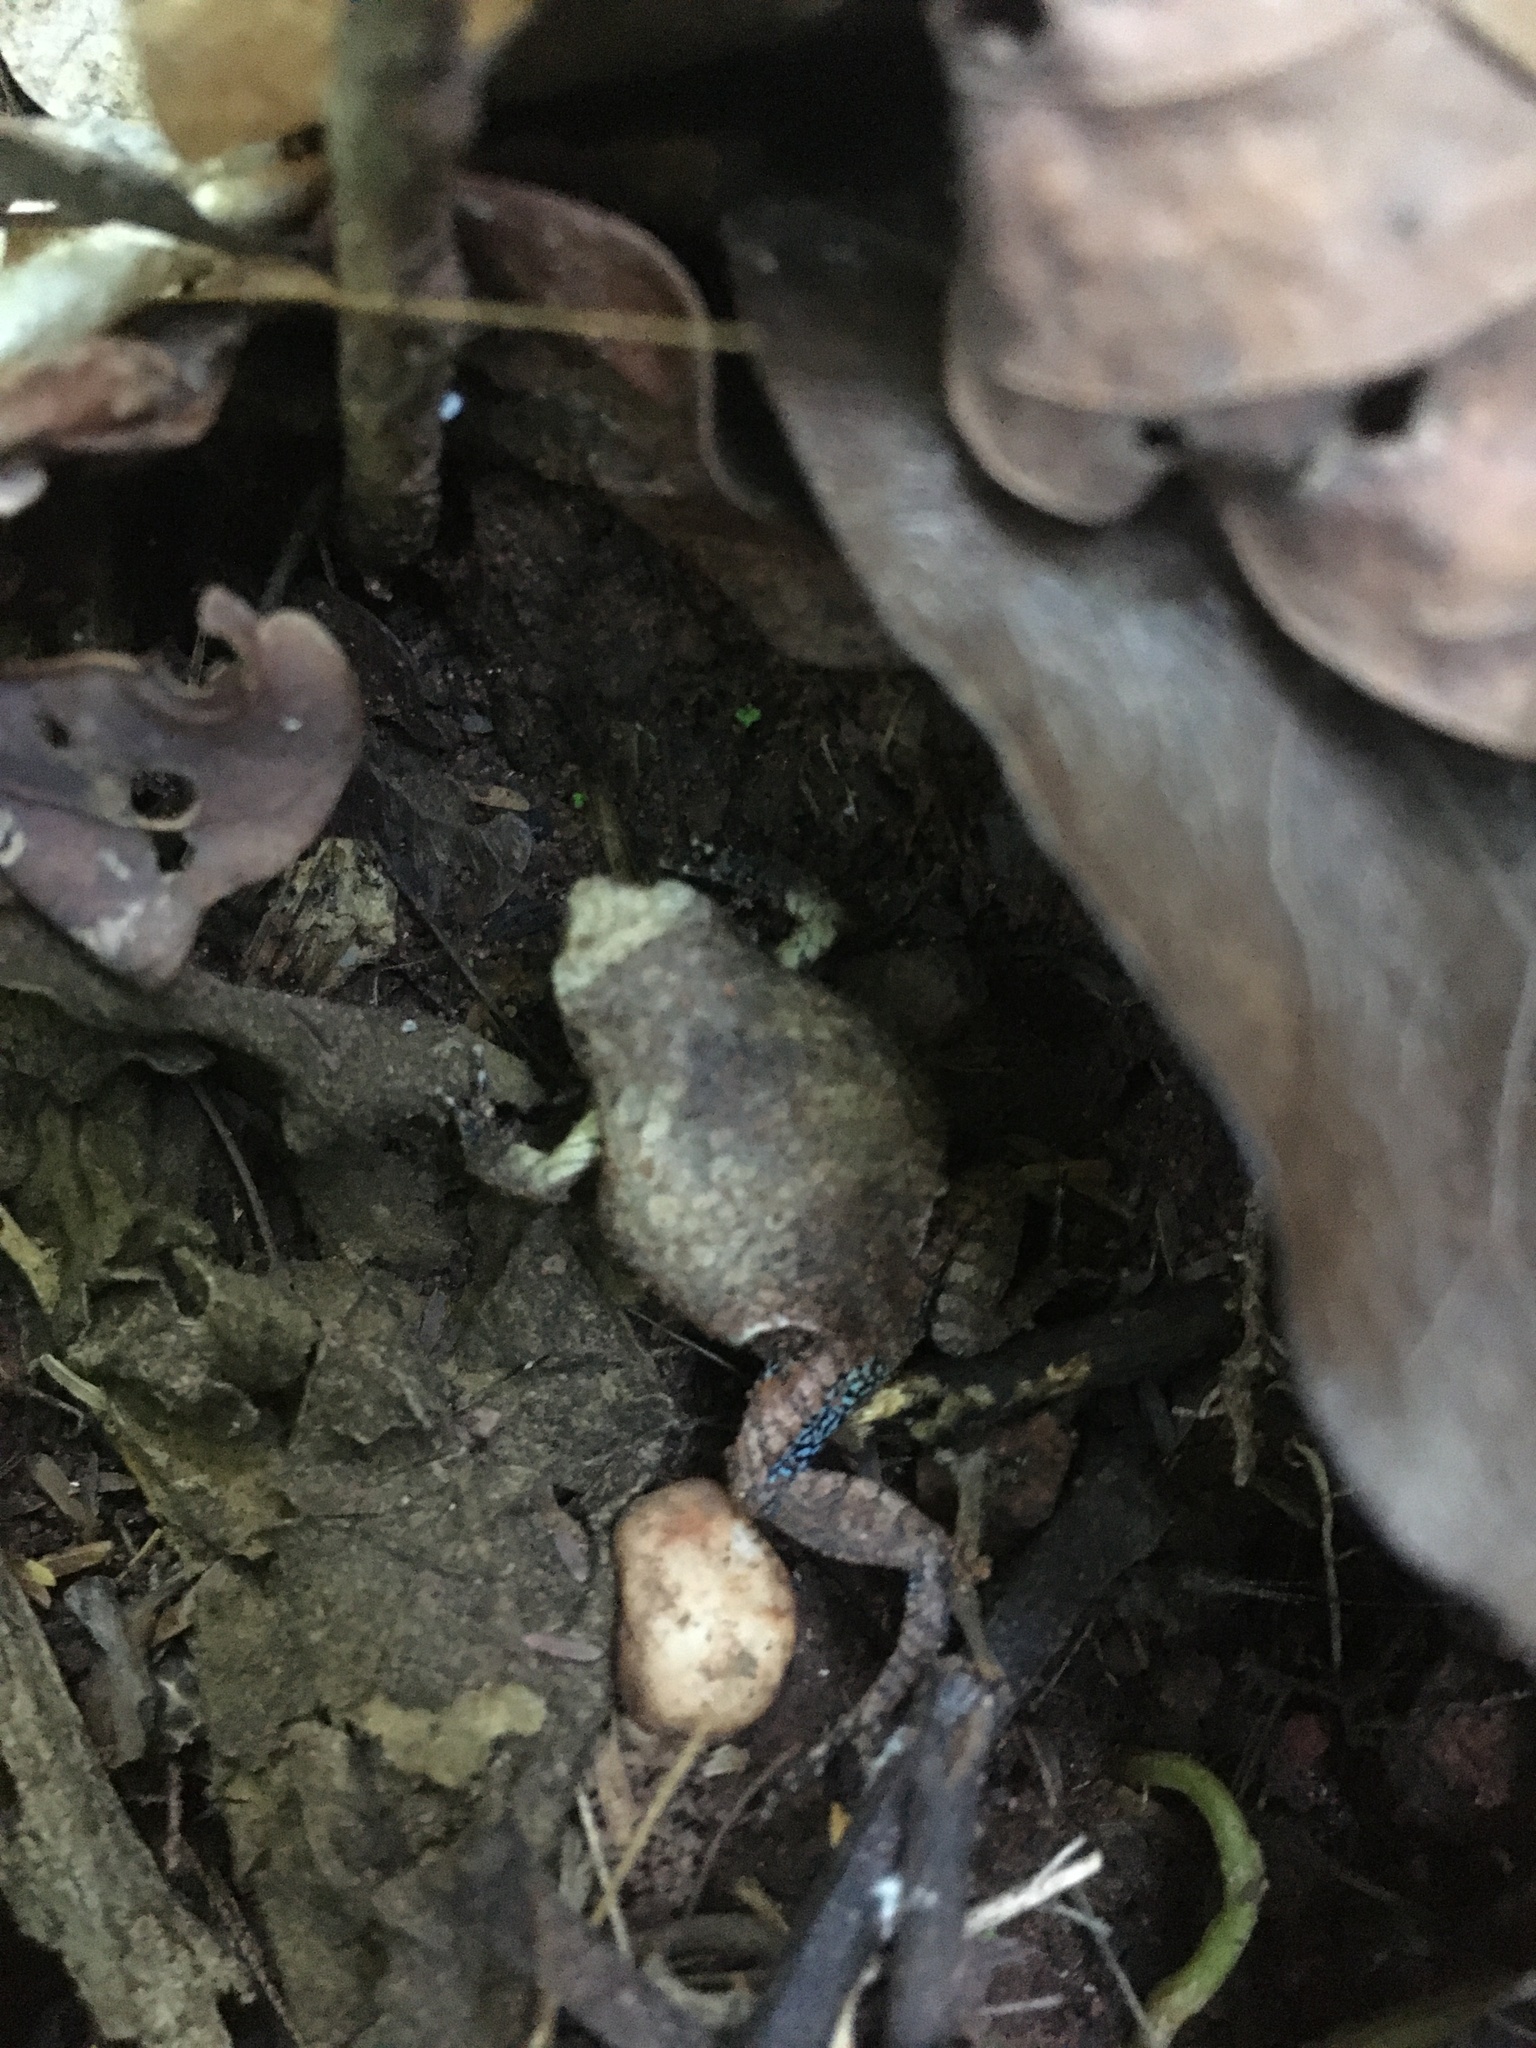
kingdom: Animalia
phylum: Chordata
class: Amphibia
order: Anura
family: Leptodactylidae
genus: Physalaemus
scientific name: Physalaemus nattereri
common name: Cuyaba dwarf frog
